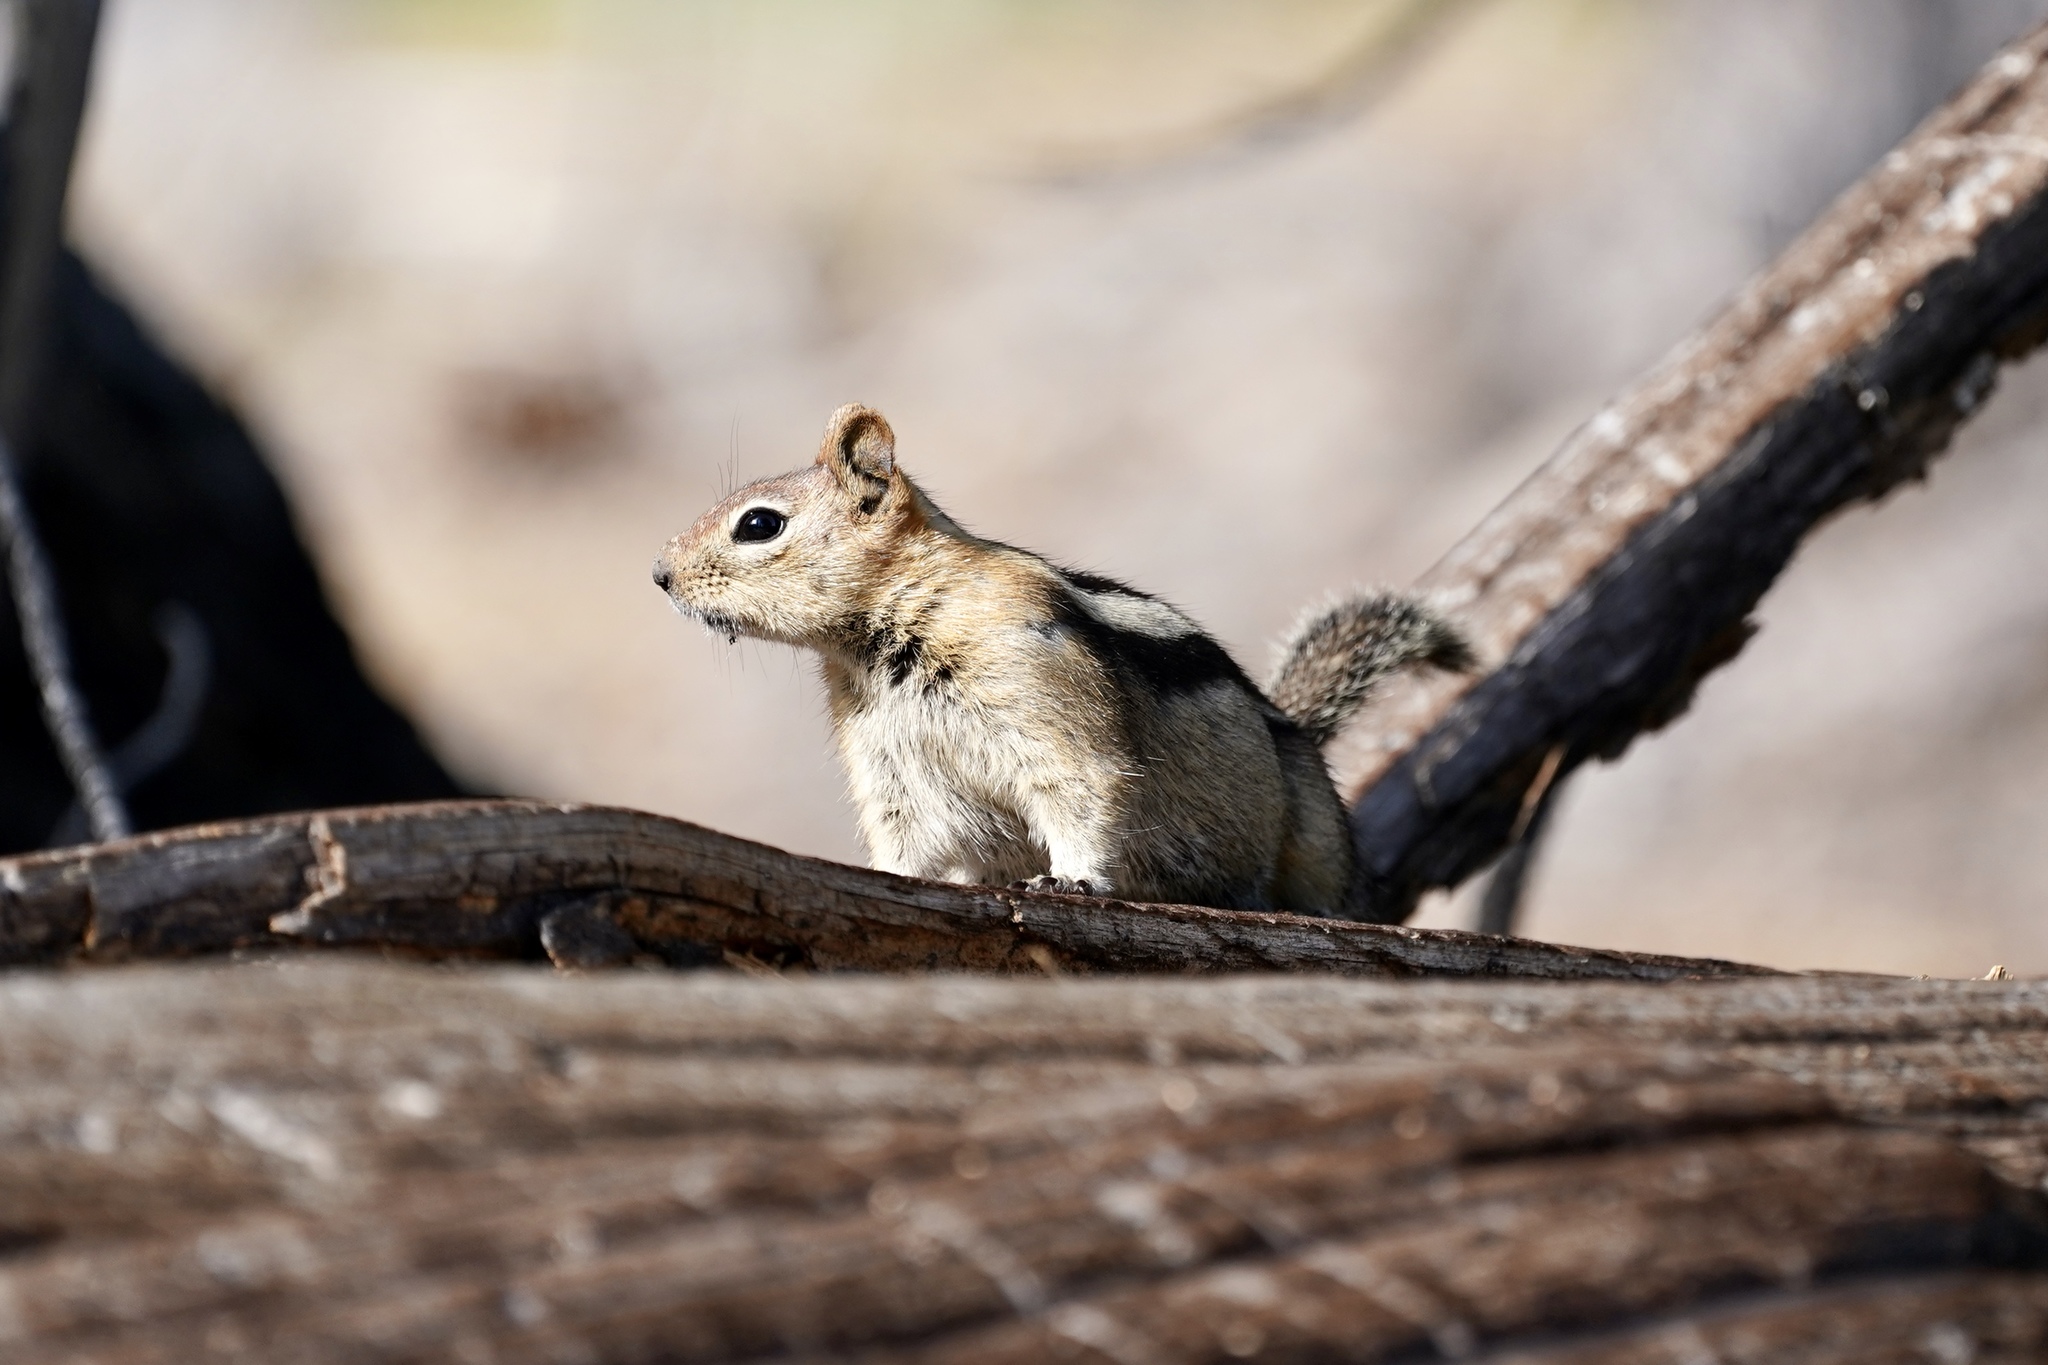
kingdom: Animalia
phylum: Chordata
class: Mammalia
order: Rodentia
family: Sciuridae
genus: Callospermophilus
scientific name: Callospermophilus lateralis
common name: Golden-mantled ground squirrel
